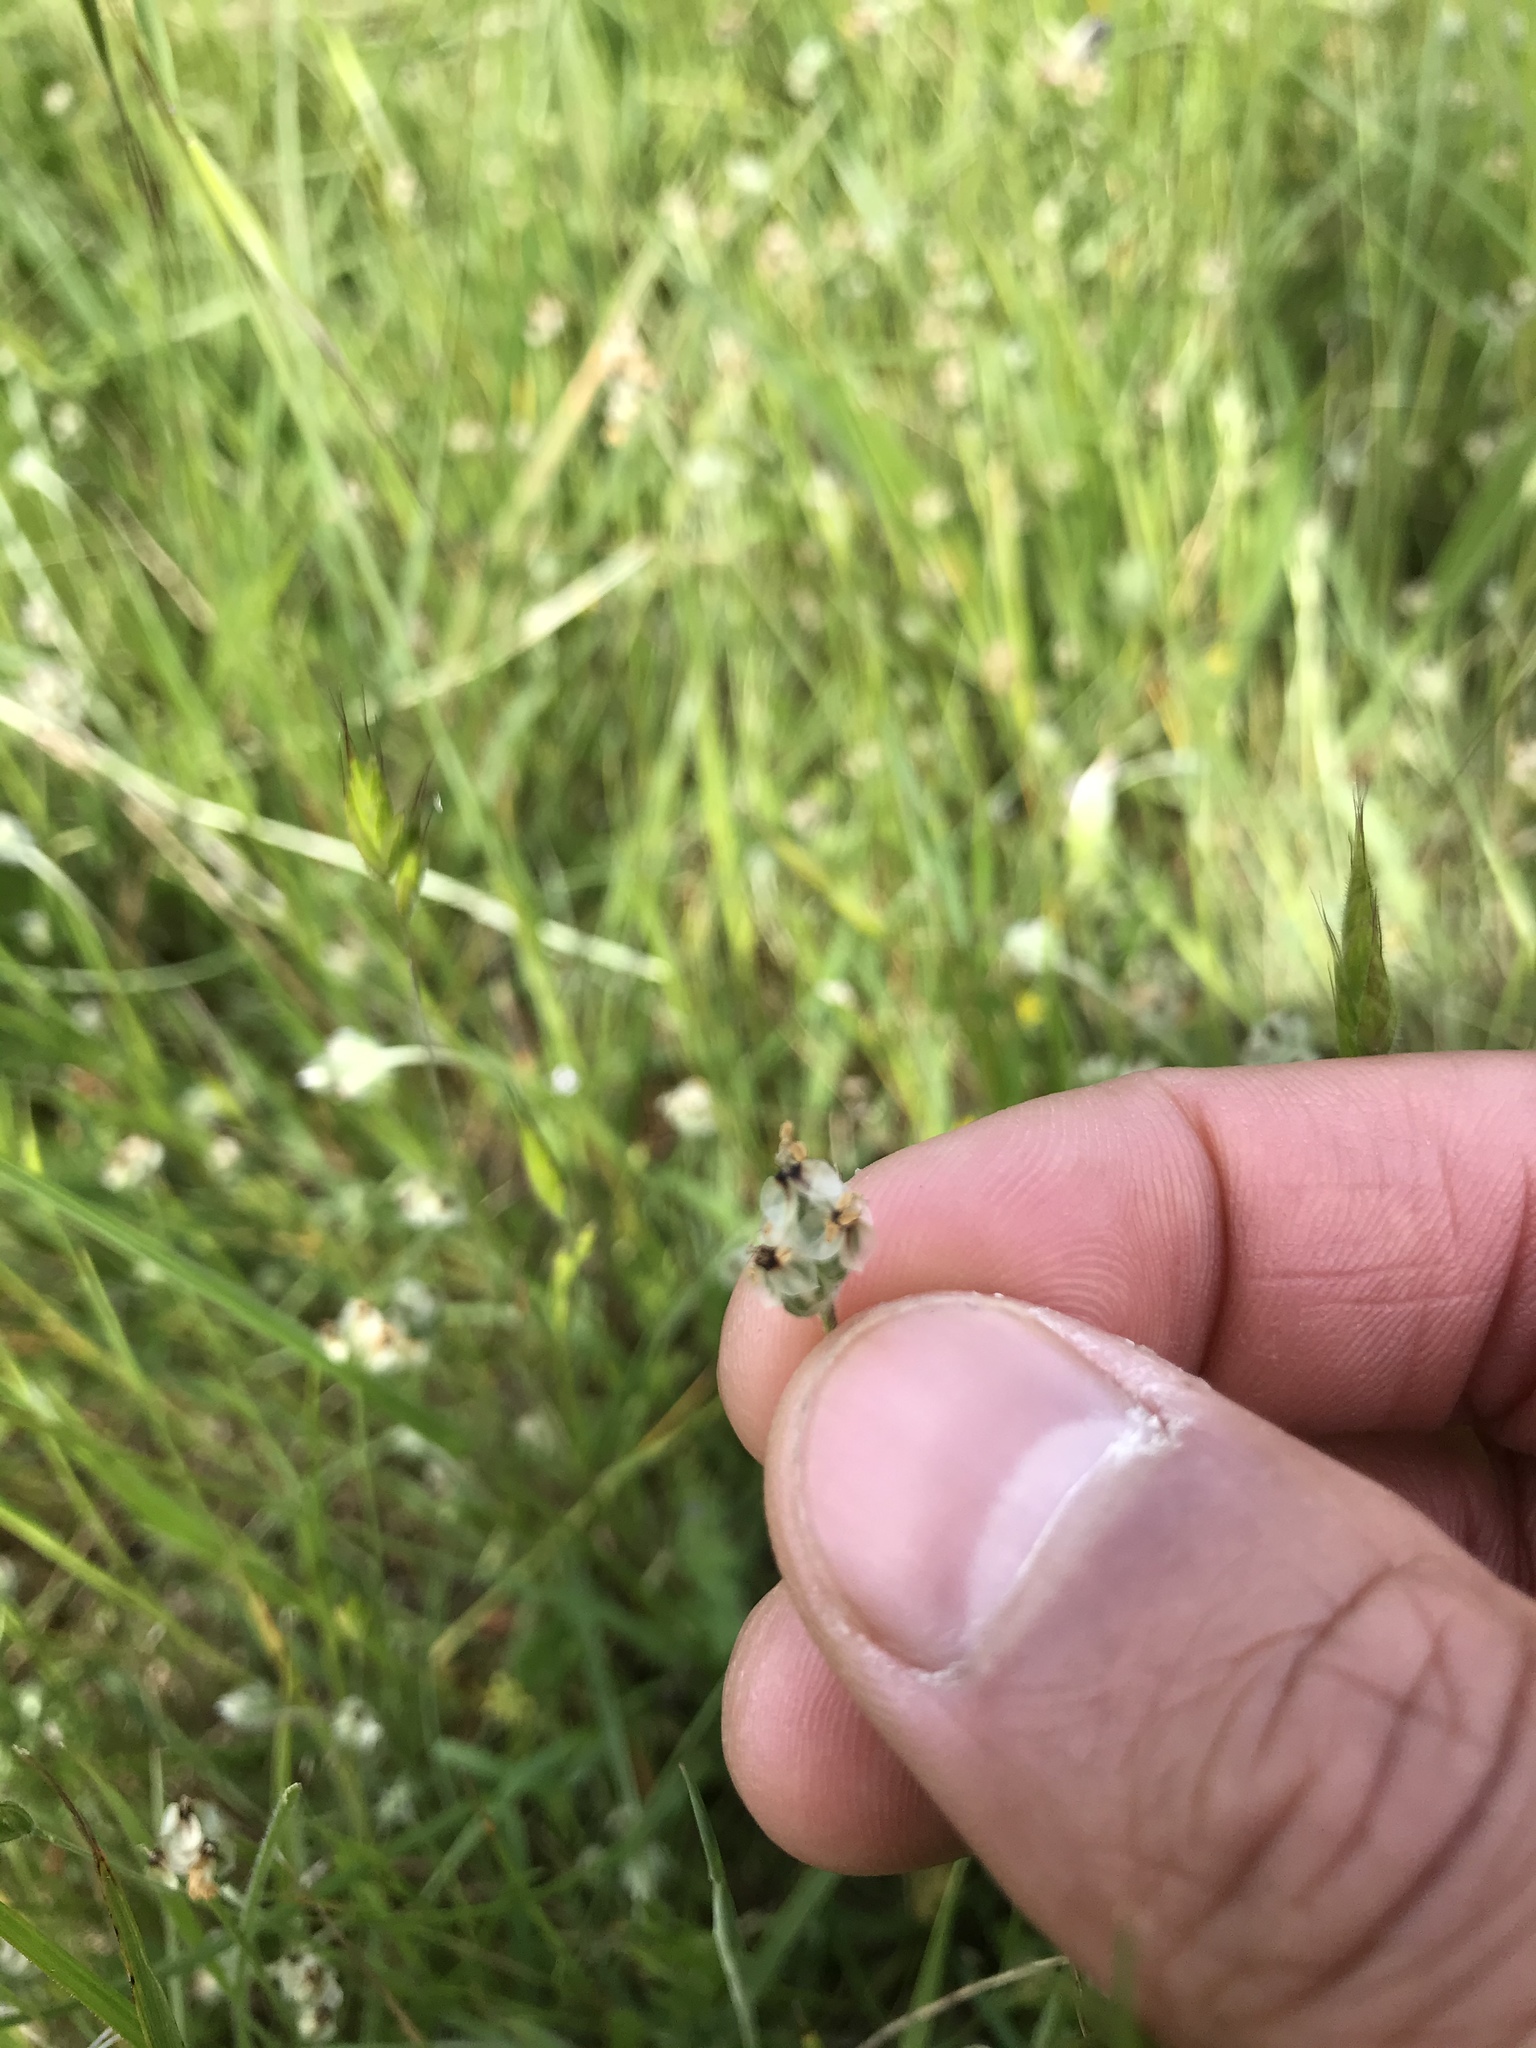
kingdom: Plantae
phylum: Tracheophyta
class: Magnoliopsida
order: Lamiales
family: Plantaginaceae
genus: Plantago
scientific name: Plantago erecta
